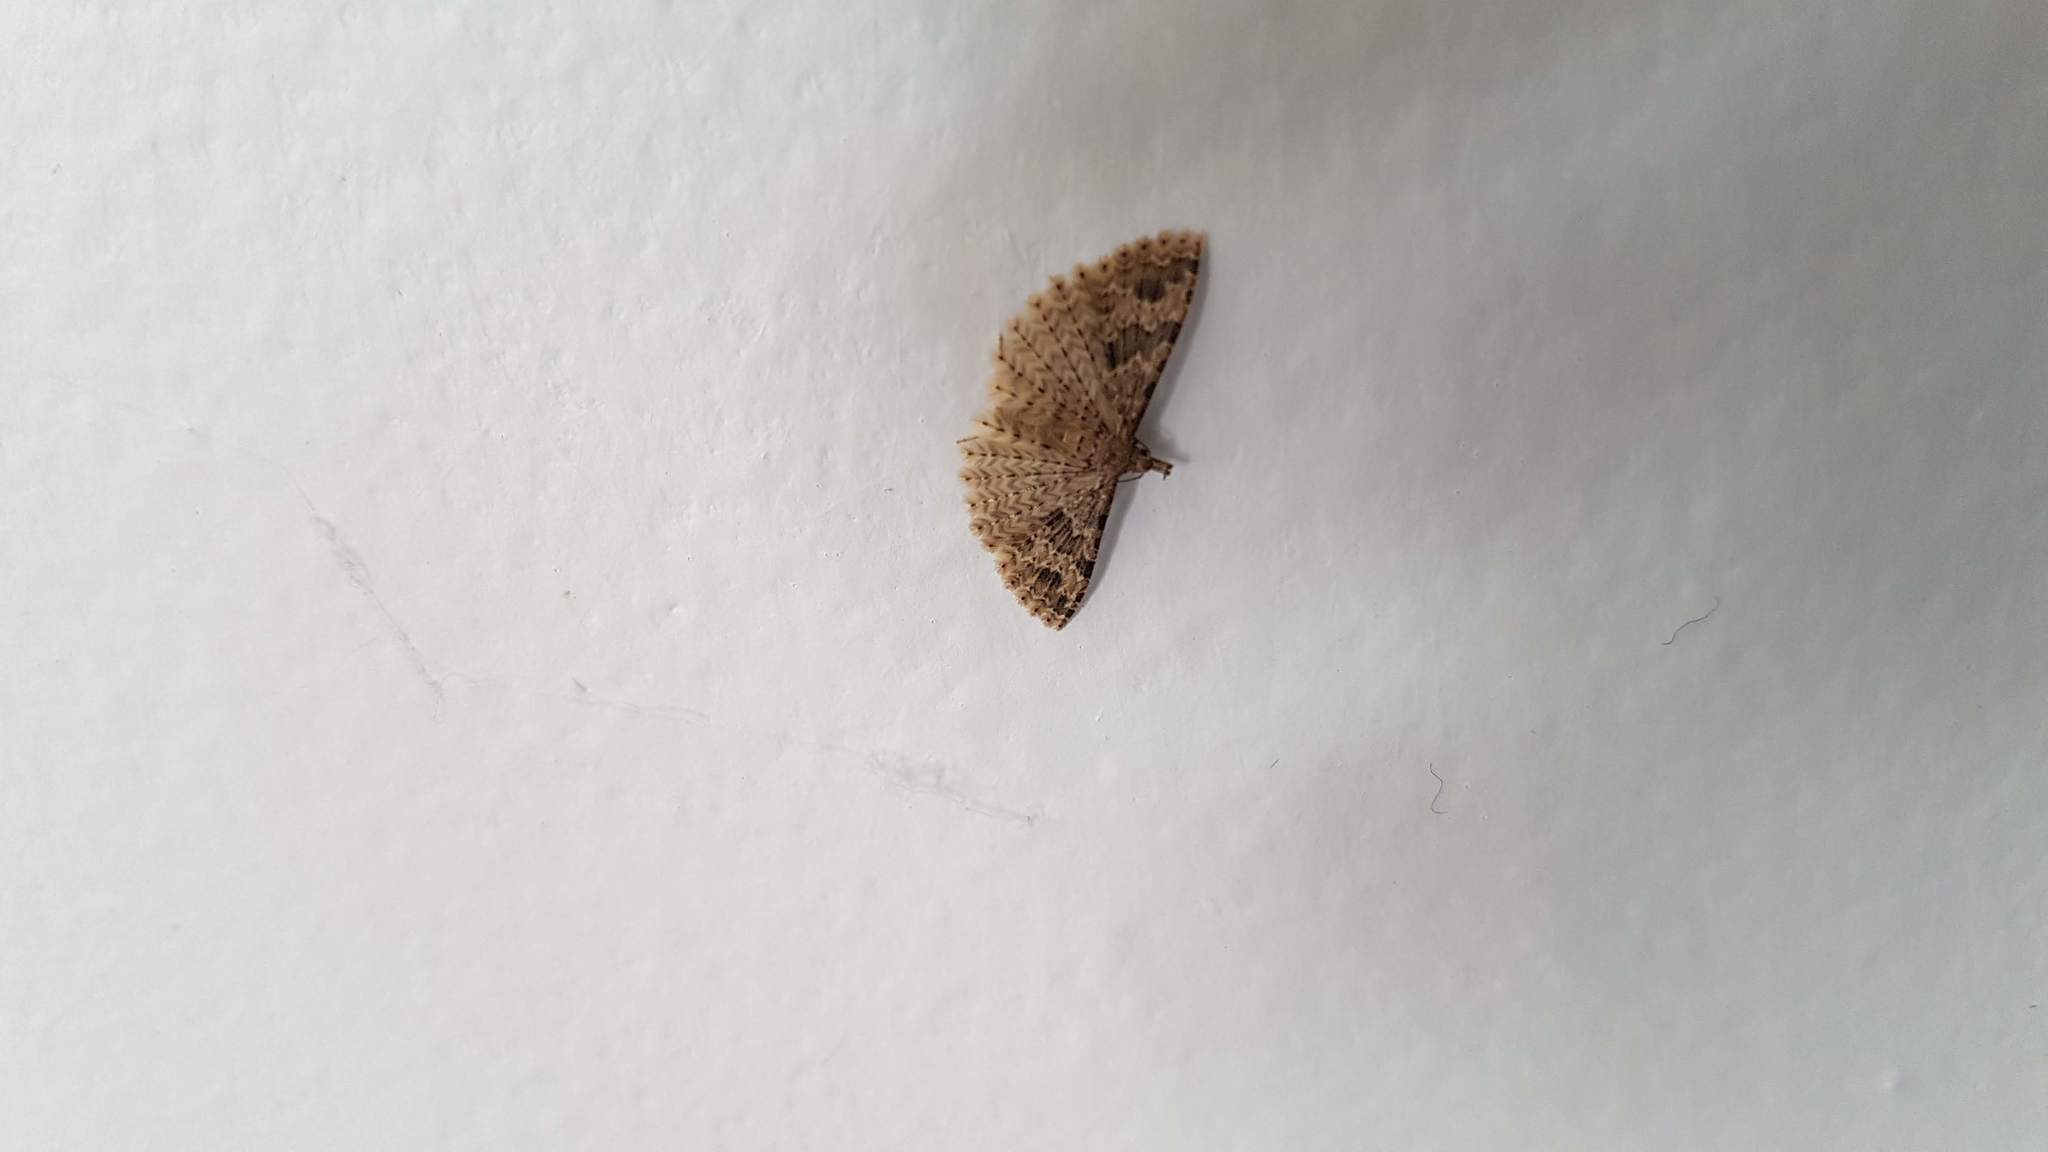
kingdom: Animalia
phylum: Arthropoda
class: Insecta
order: Lepidoptera
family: Alucitidae
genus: Alucita
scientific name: Alucita hexadactyla
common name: Twenty-plume moth
